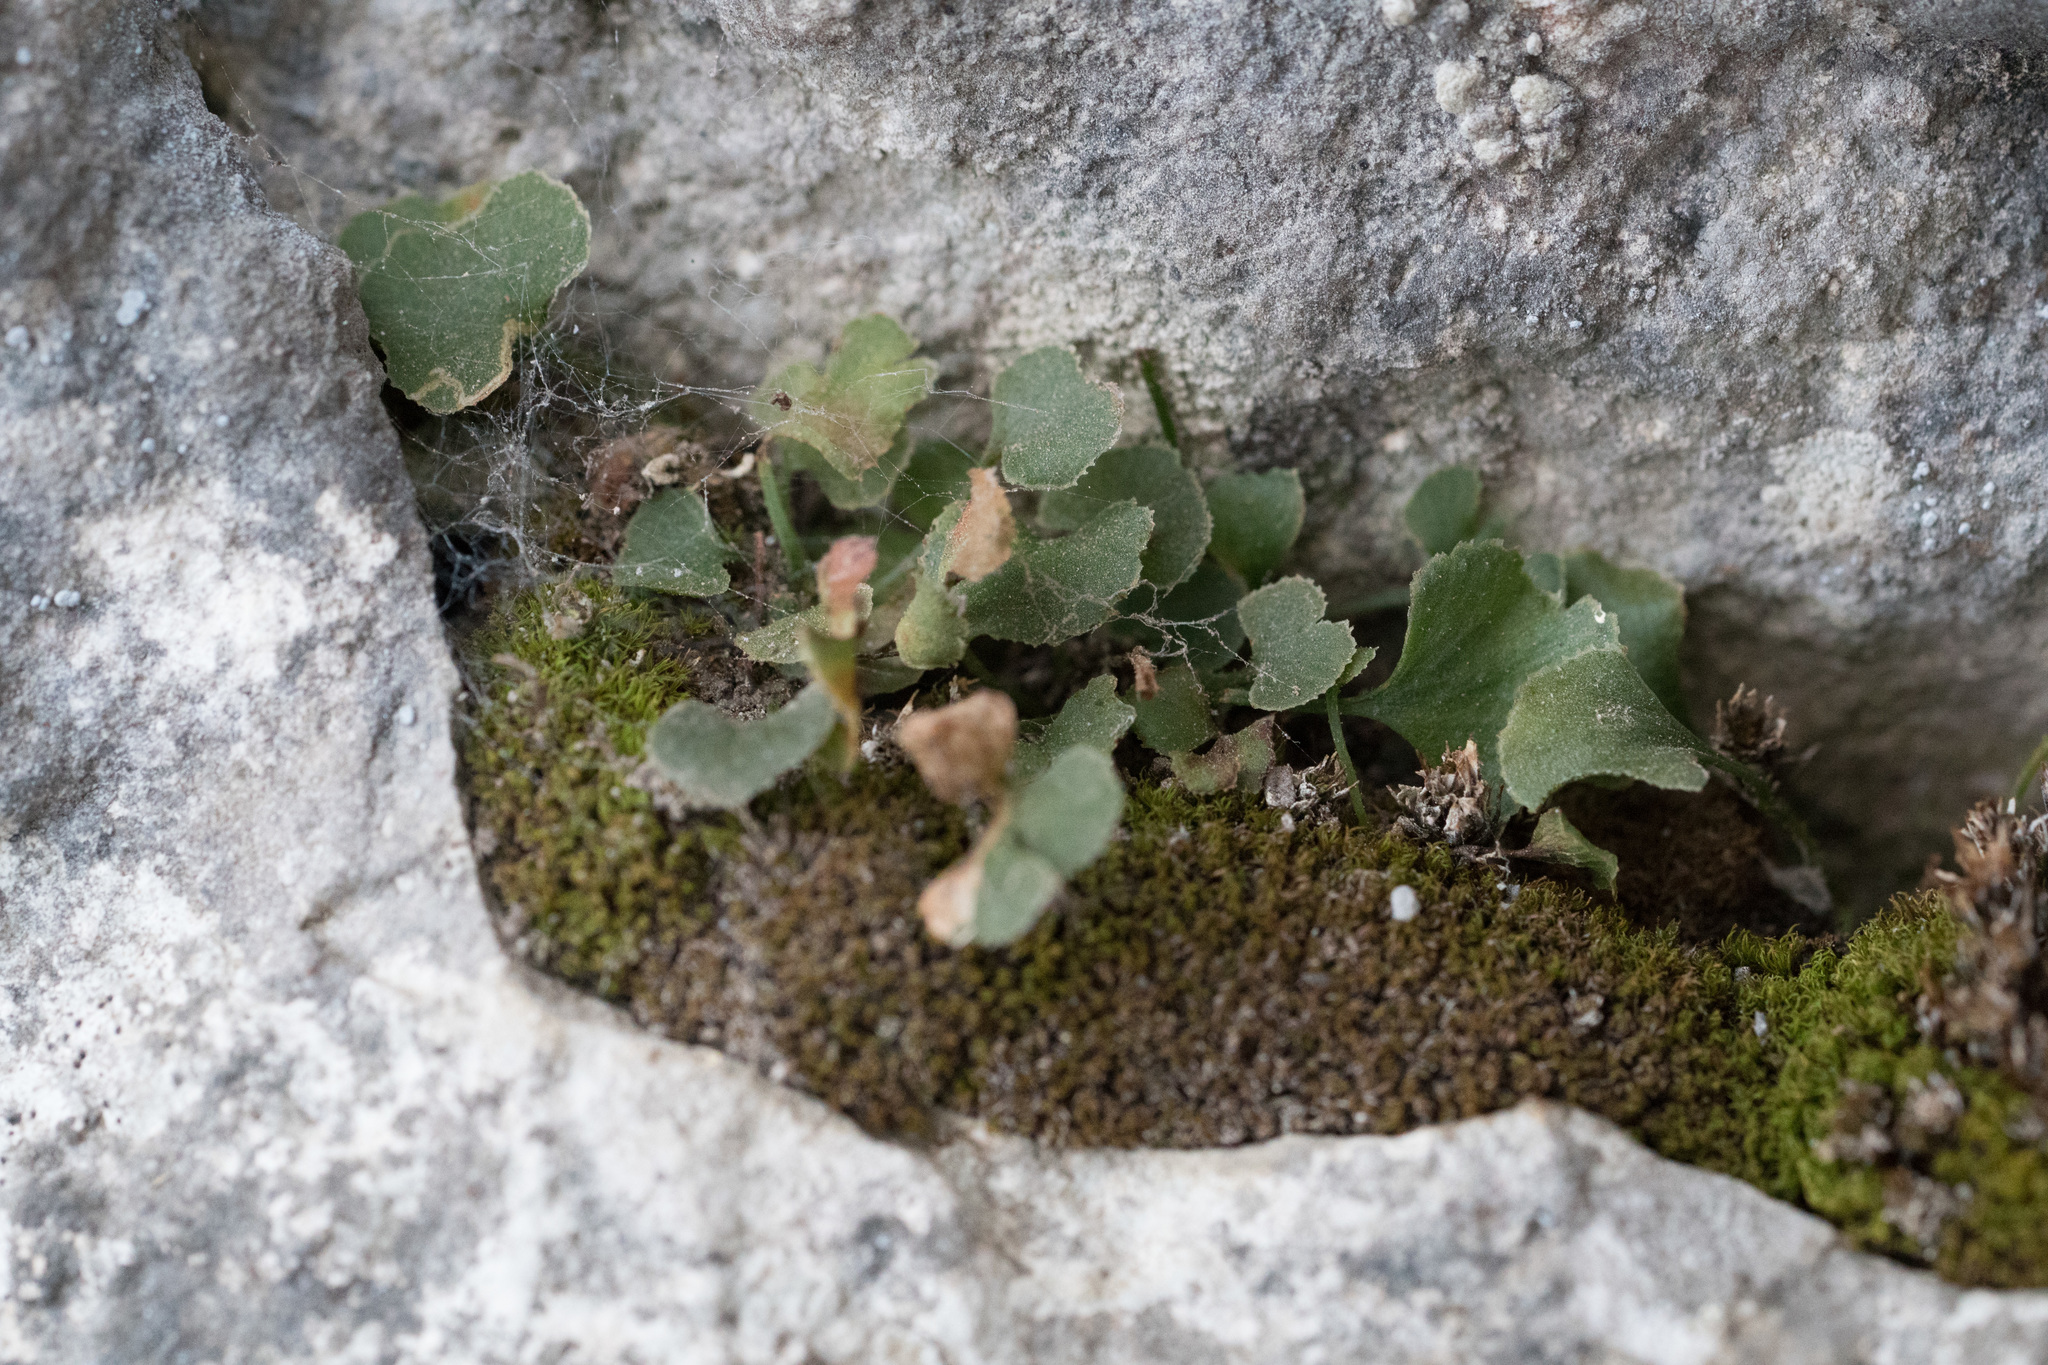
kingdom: Plantae
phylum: Tracheophyta
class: Polypodiopsida
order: Polypodiales
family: Aspleniaceae
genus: Asplenium
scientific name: Asplenium ruta-muraria
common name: Wall-rue
